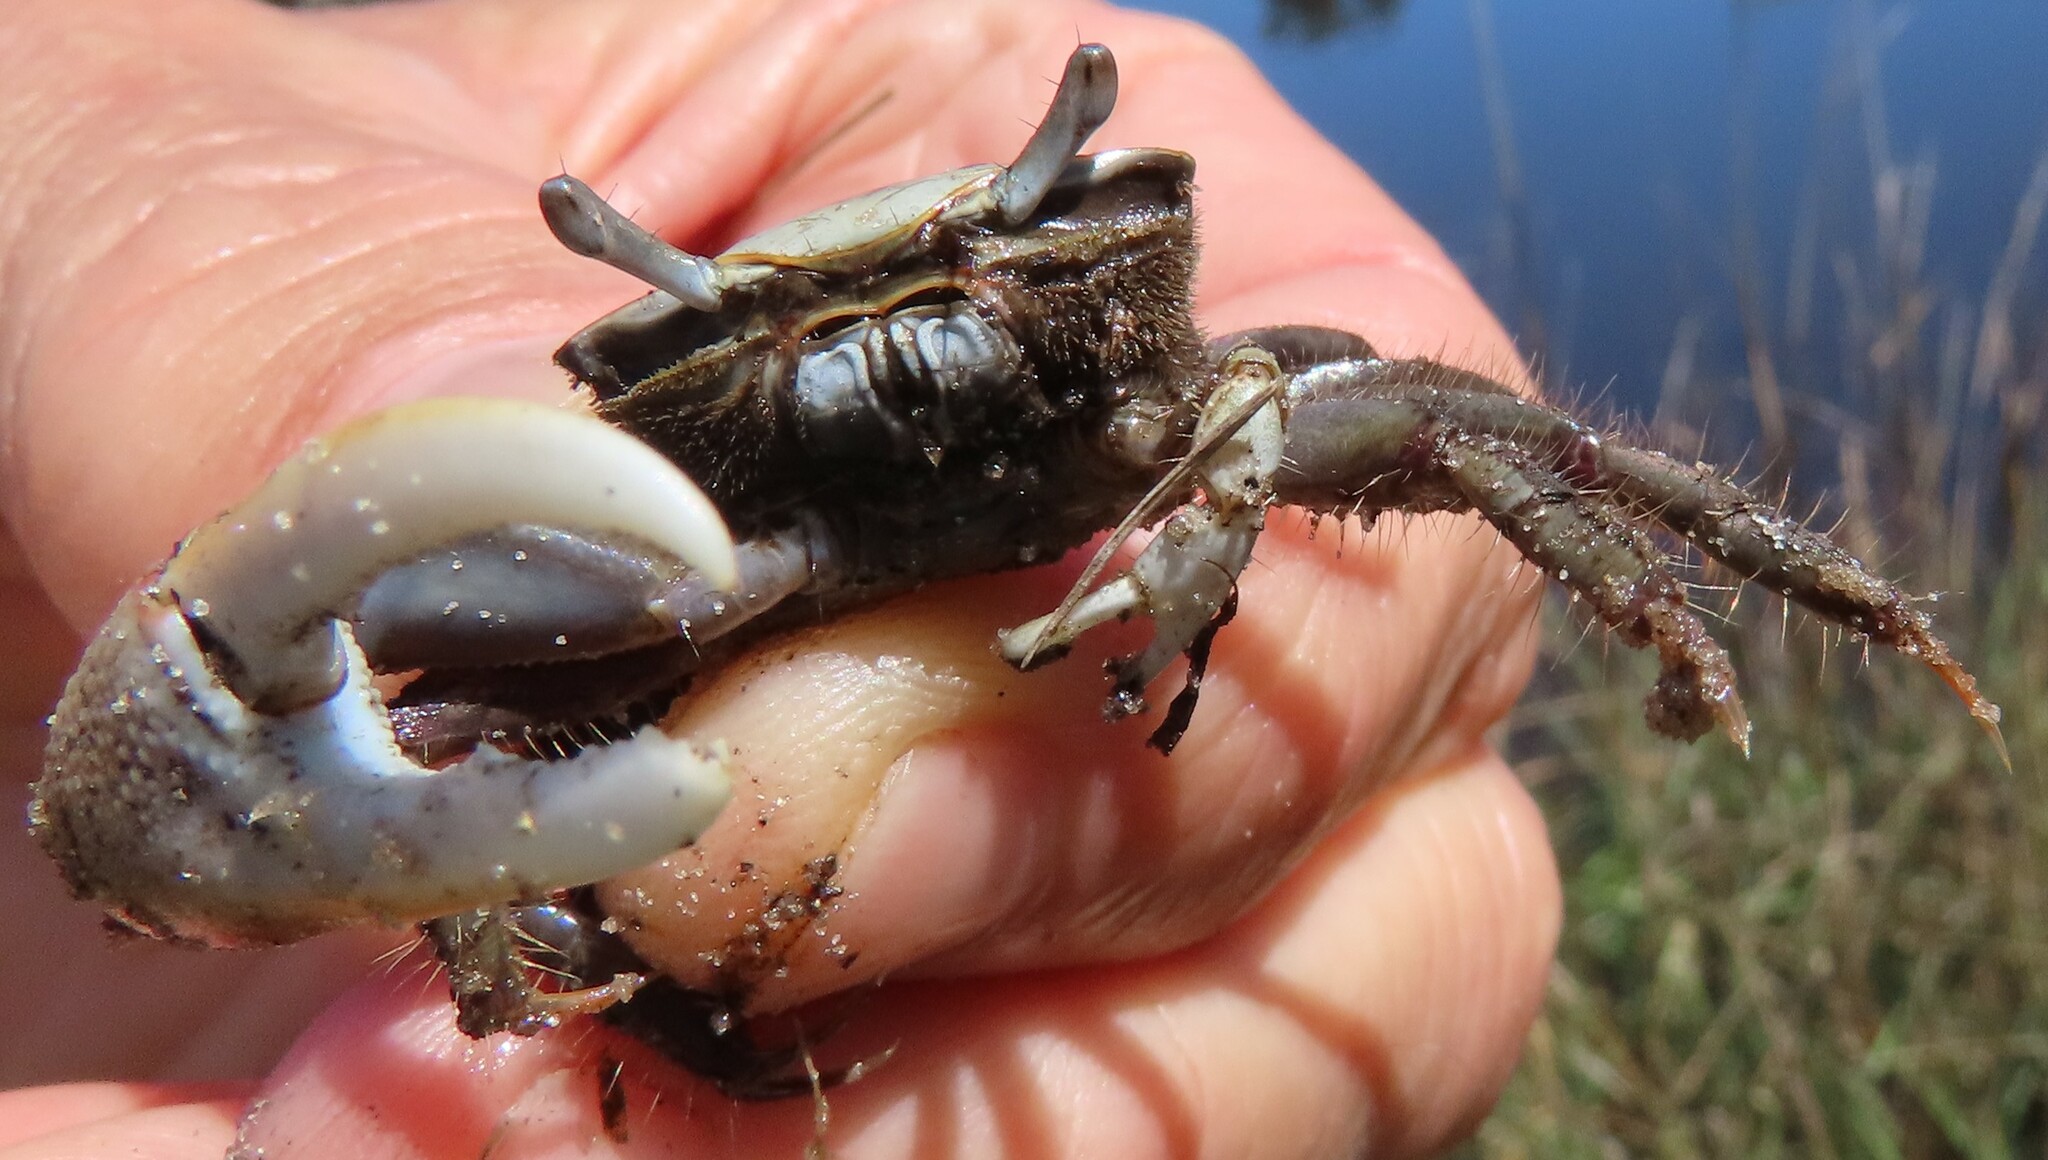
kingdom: Animalia
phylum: Arthropoda
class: Malacostraca
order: Decapoda
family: Ocypodidae
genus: Minuca
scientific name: Minuca minax
